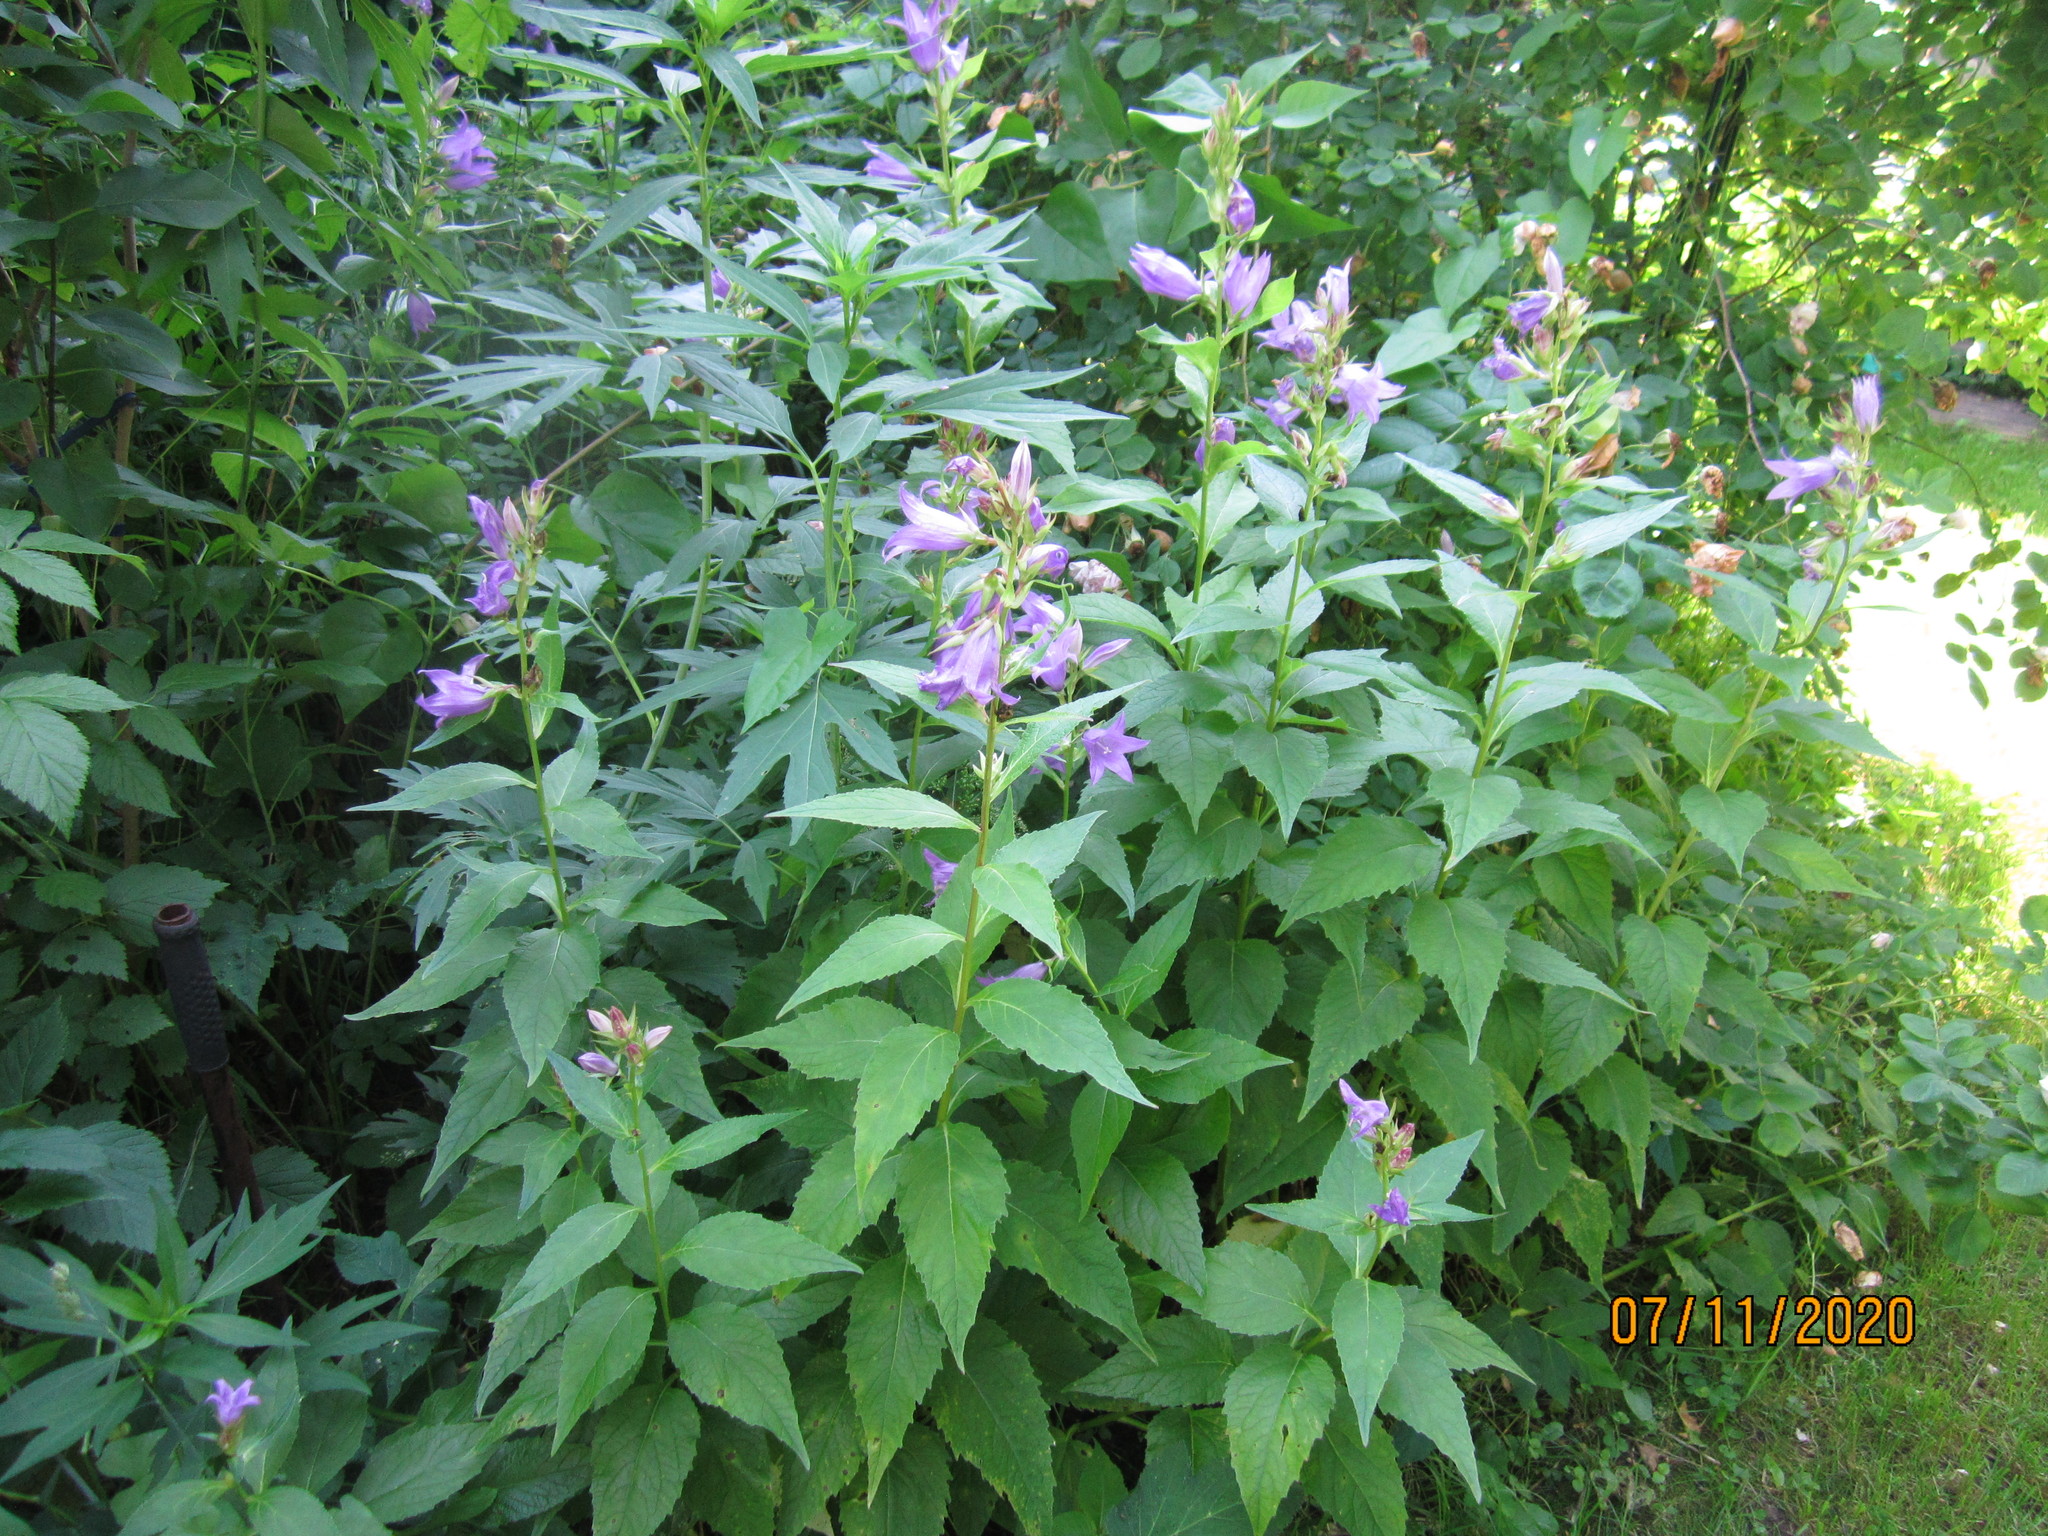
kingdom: Plantae
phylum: Tracheophyta
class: Magnoliopsida
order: Asterales
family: Campanulaceae
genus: Campanula
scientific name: Campanula latifolia
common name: Giant bellflower
